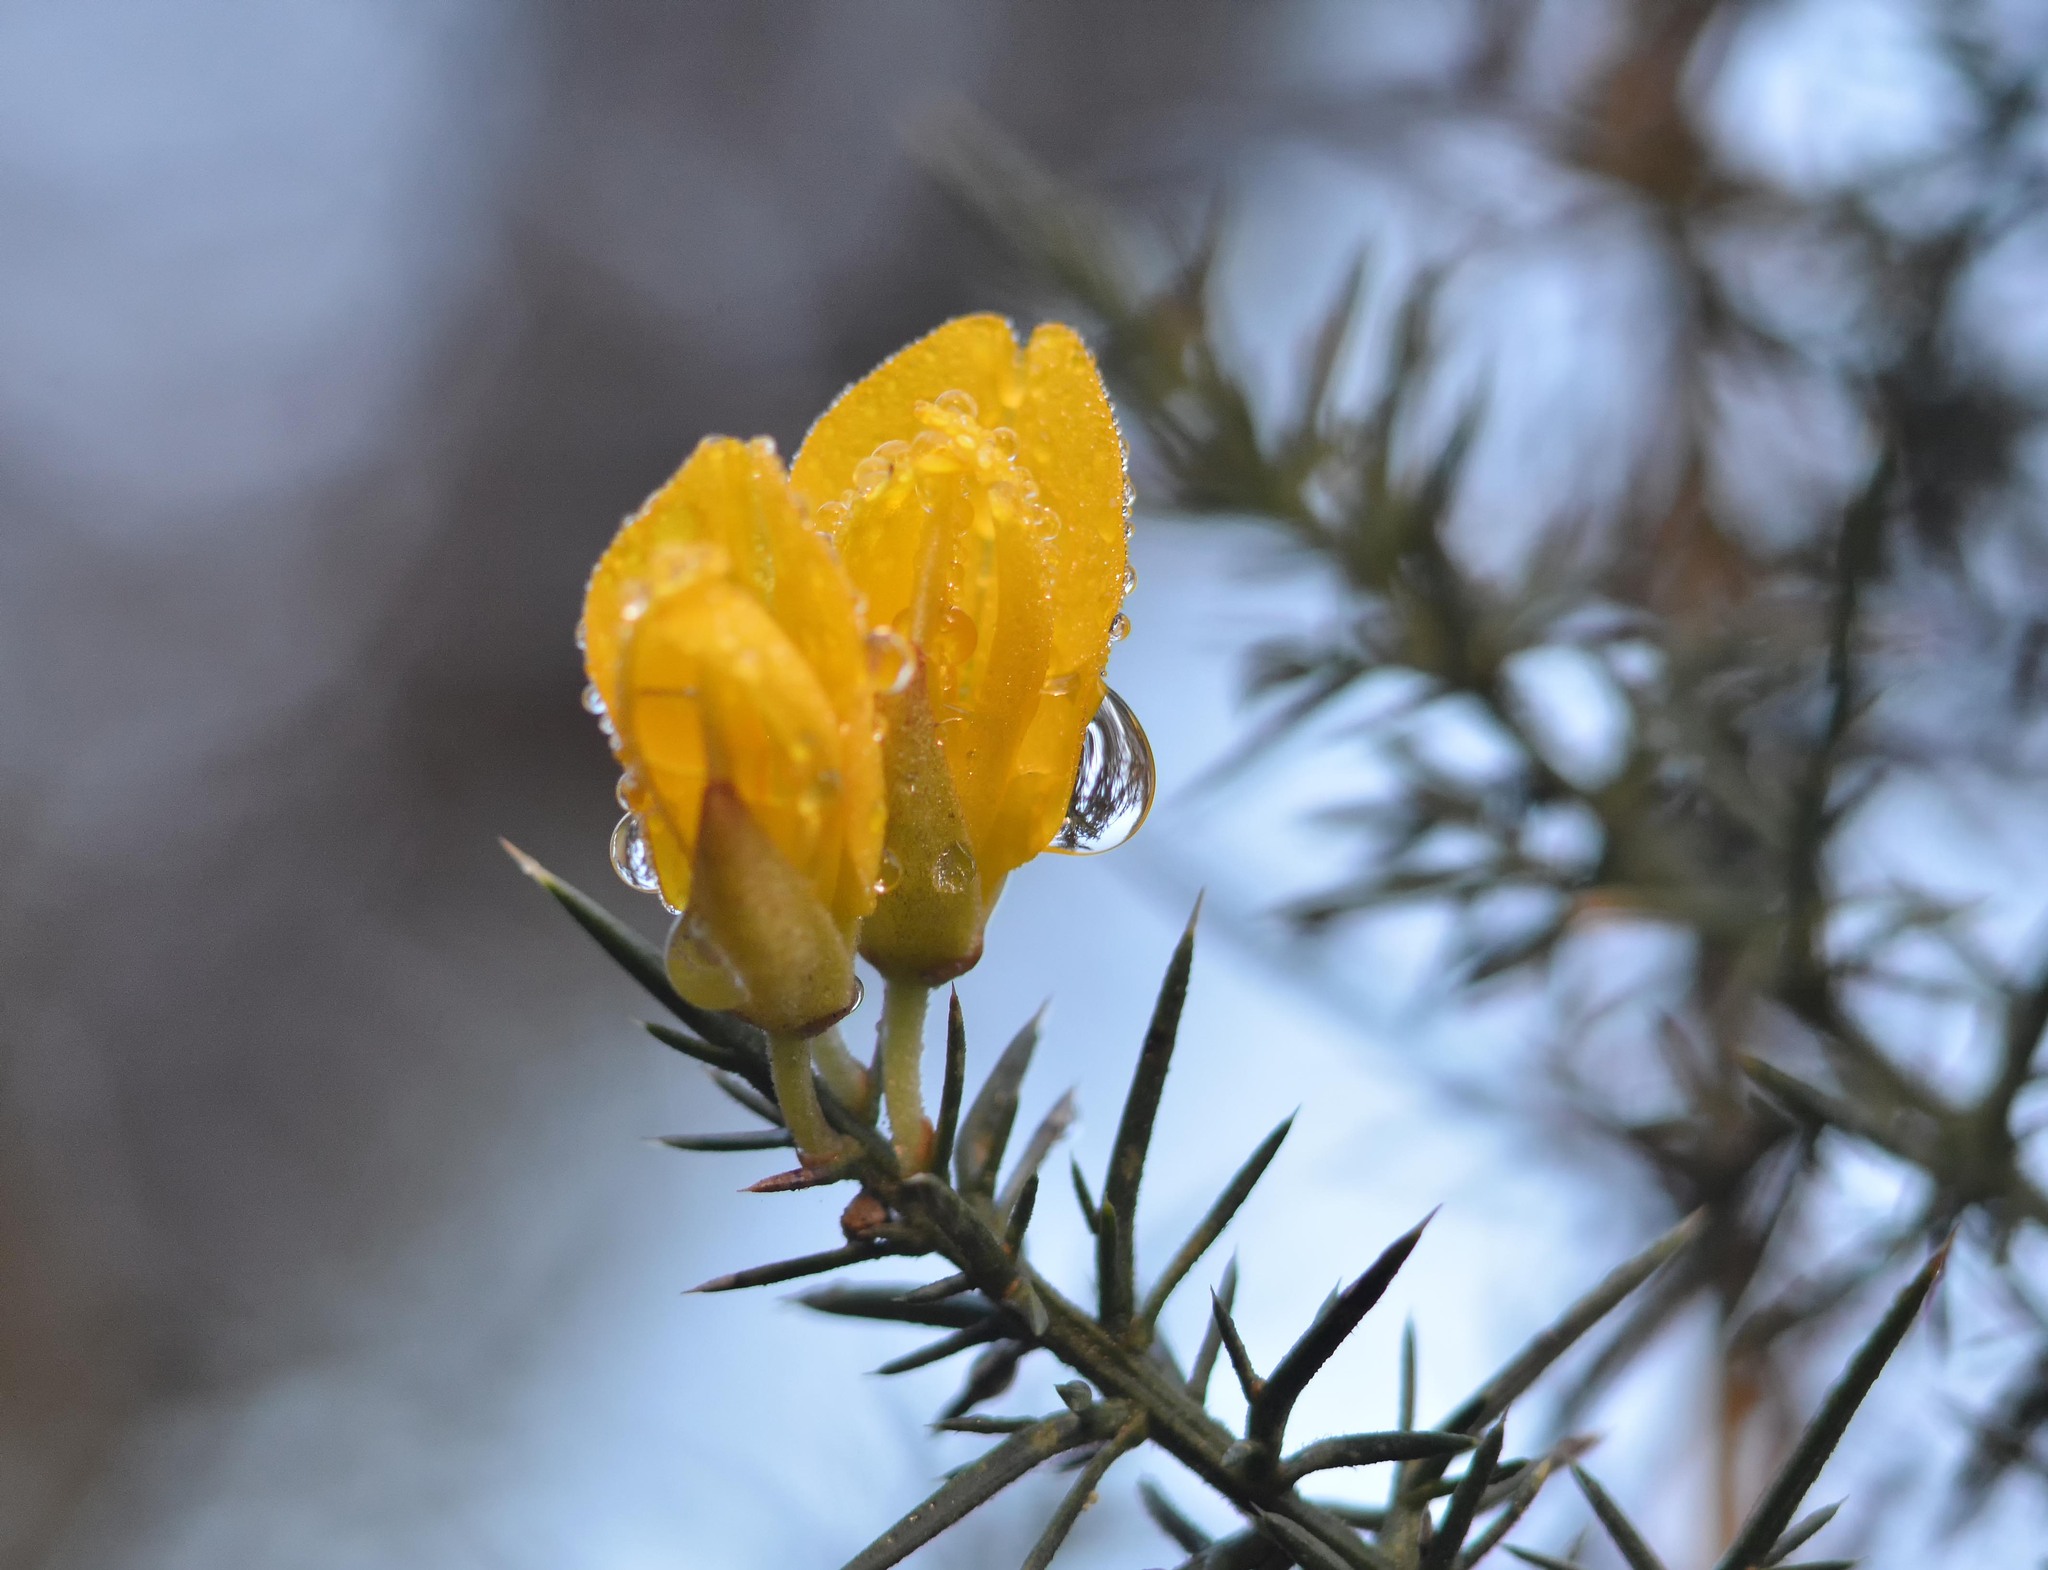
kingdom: Plantae
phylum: Tracheophyta
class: Magnoliopsida
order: Fabales
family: Fabaceae
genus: Ulex
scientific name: Ulex europaeus
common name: Common gorse
